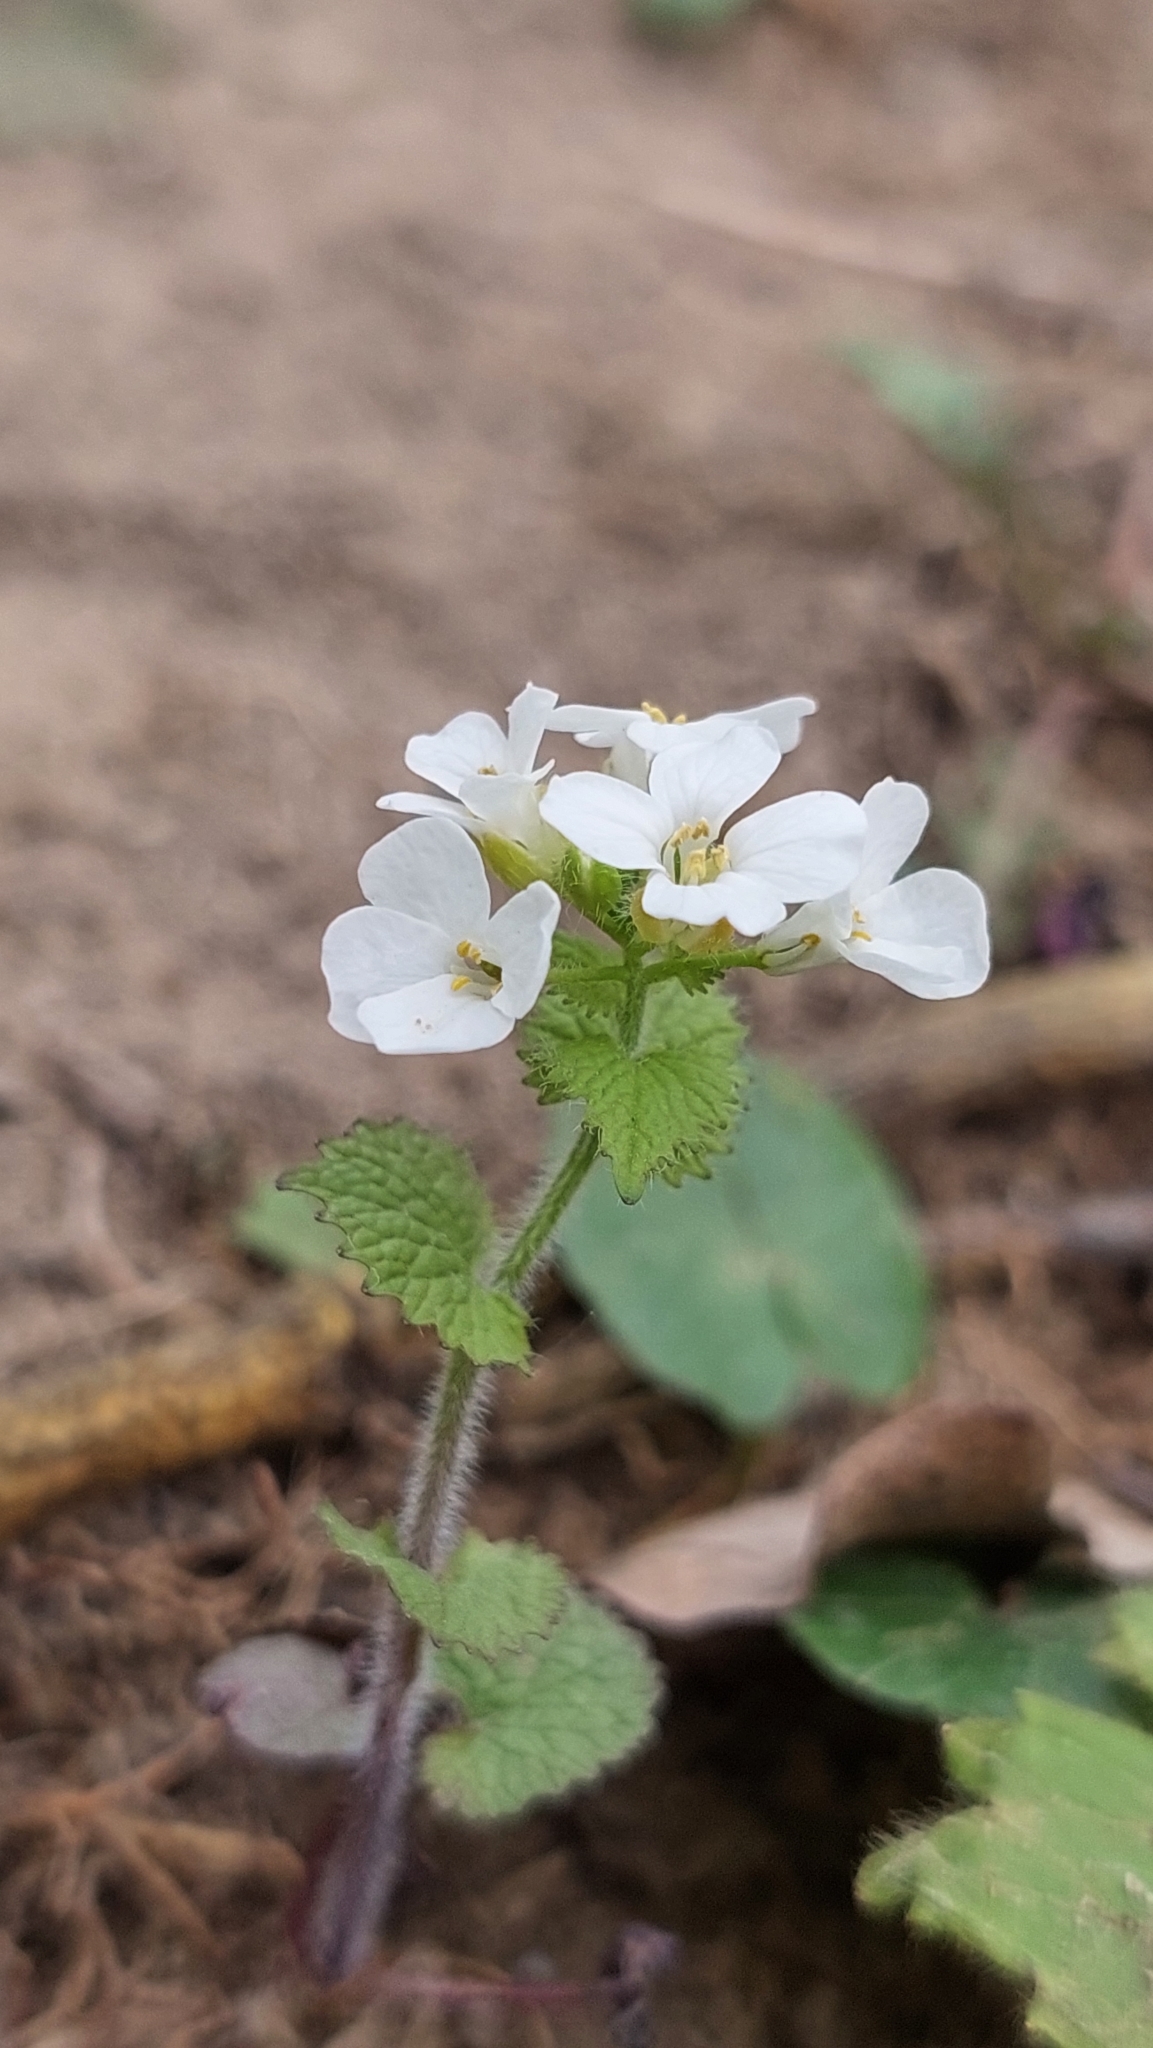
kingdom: Plantae
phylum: Tracheophyta
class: Magnoliopsida
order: Brassicales
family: Brassicaceae
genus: Alliaria
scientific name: Alliaria petiolata
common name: Garlic mustard
